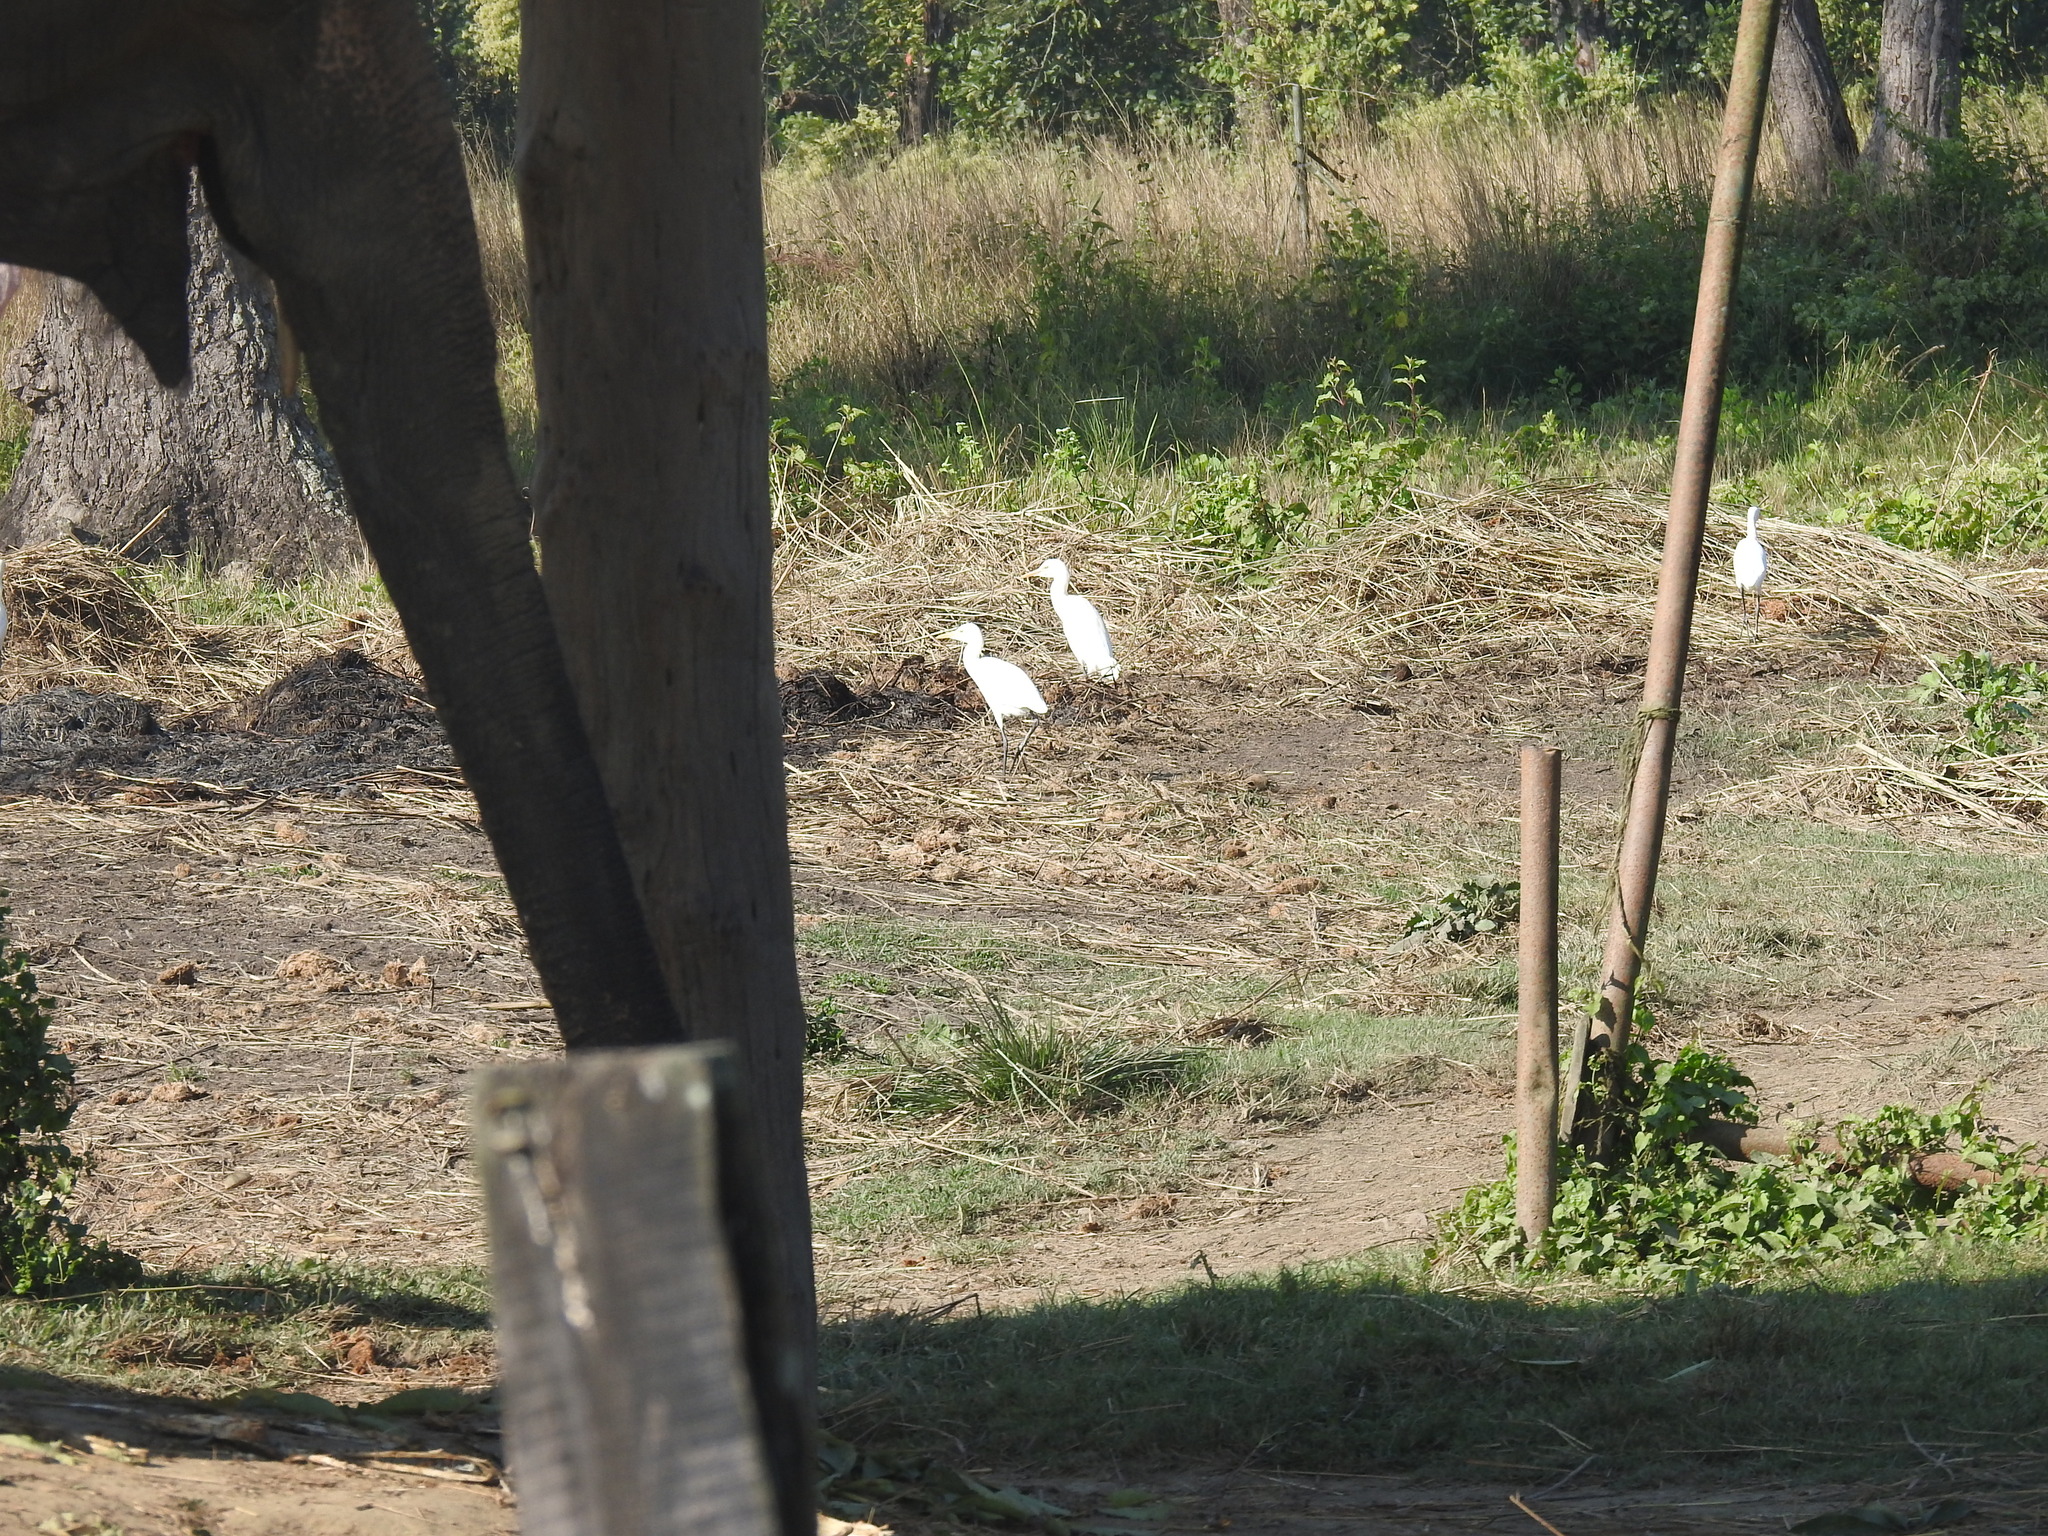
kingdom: Animalia
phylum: Chordata
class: Aves
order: Pelecaniformes
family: Ardeidae
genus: Bubulcus
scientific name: Bubulcus coromandus
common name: Eastern cattle egret
